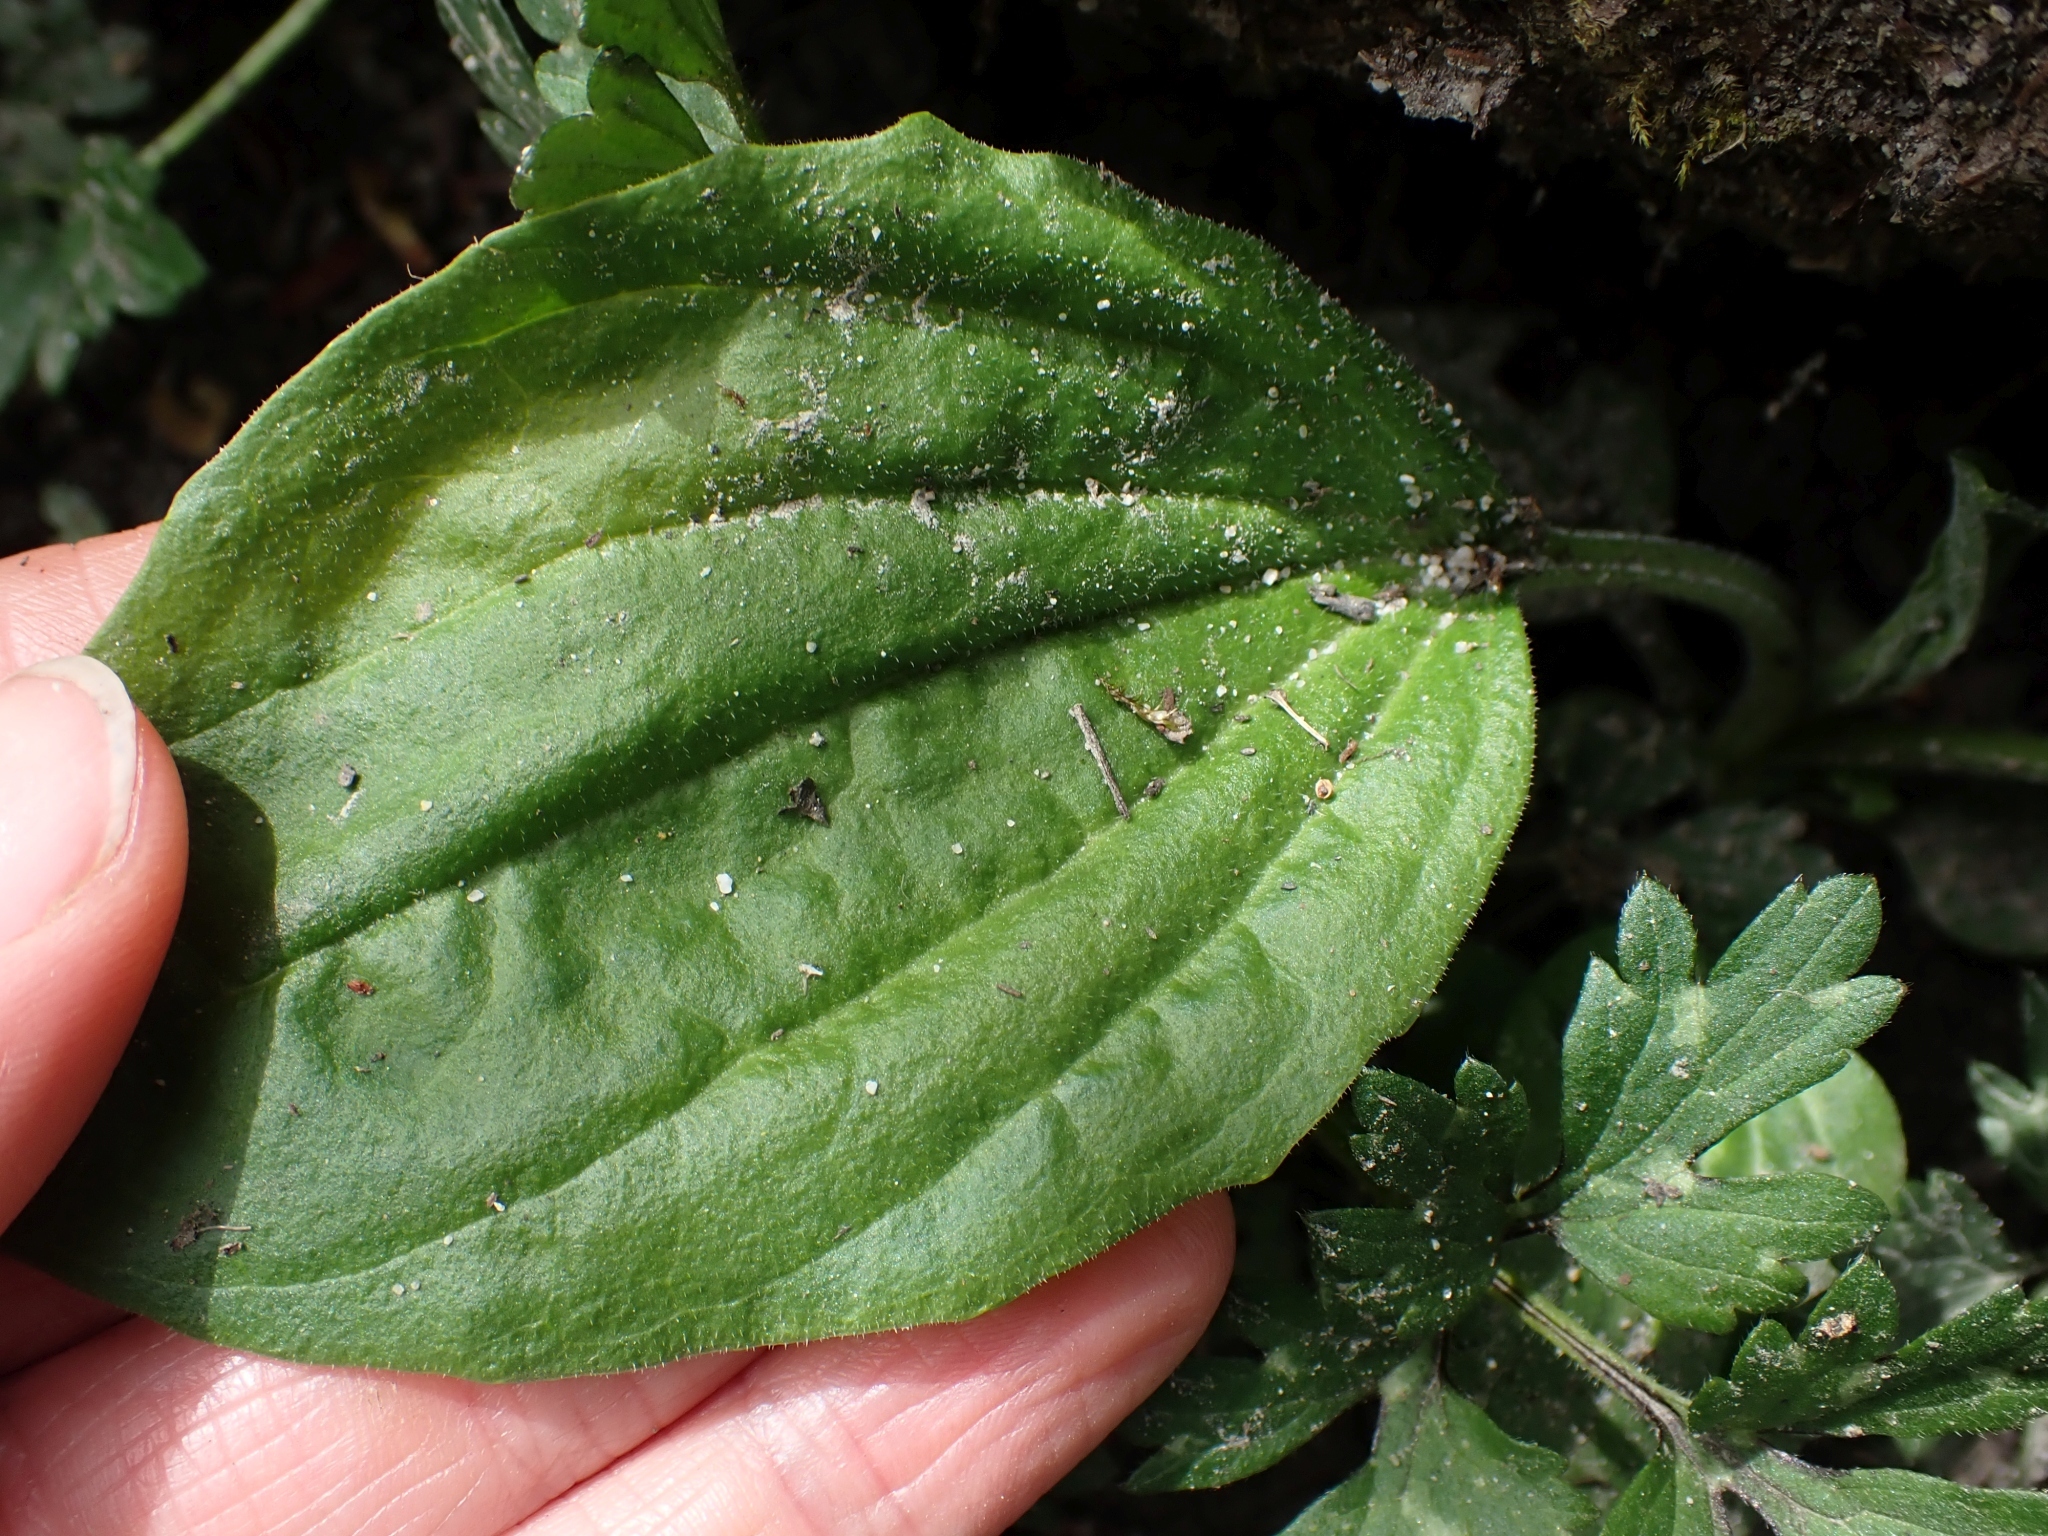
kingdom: Plantae
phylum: Tracheophyta
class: Magnoliopsida
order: Lamiales
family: Plantaginaceae
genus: Plantago
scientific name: Plantago major
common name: Common plantain
